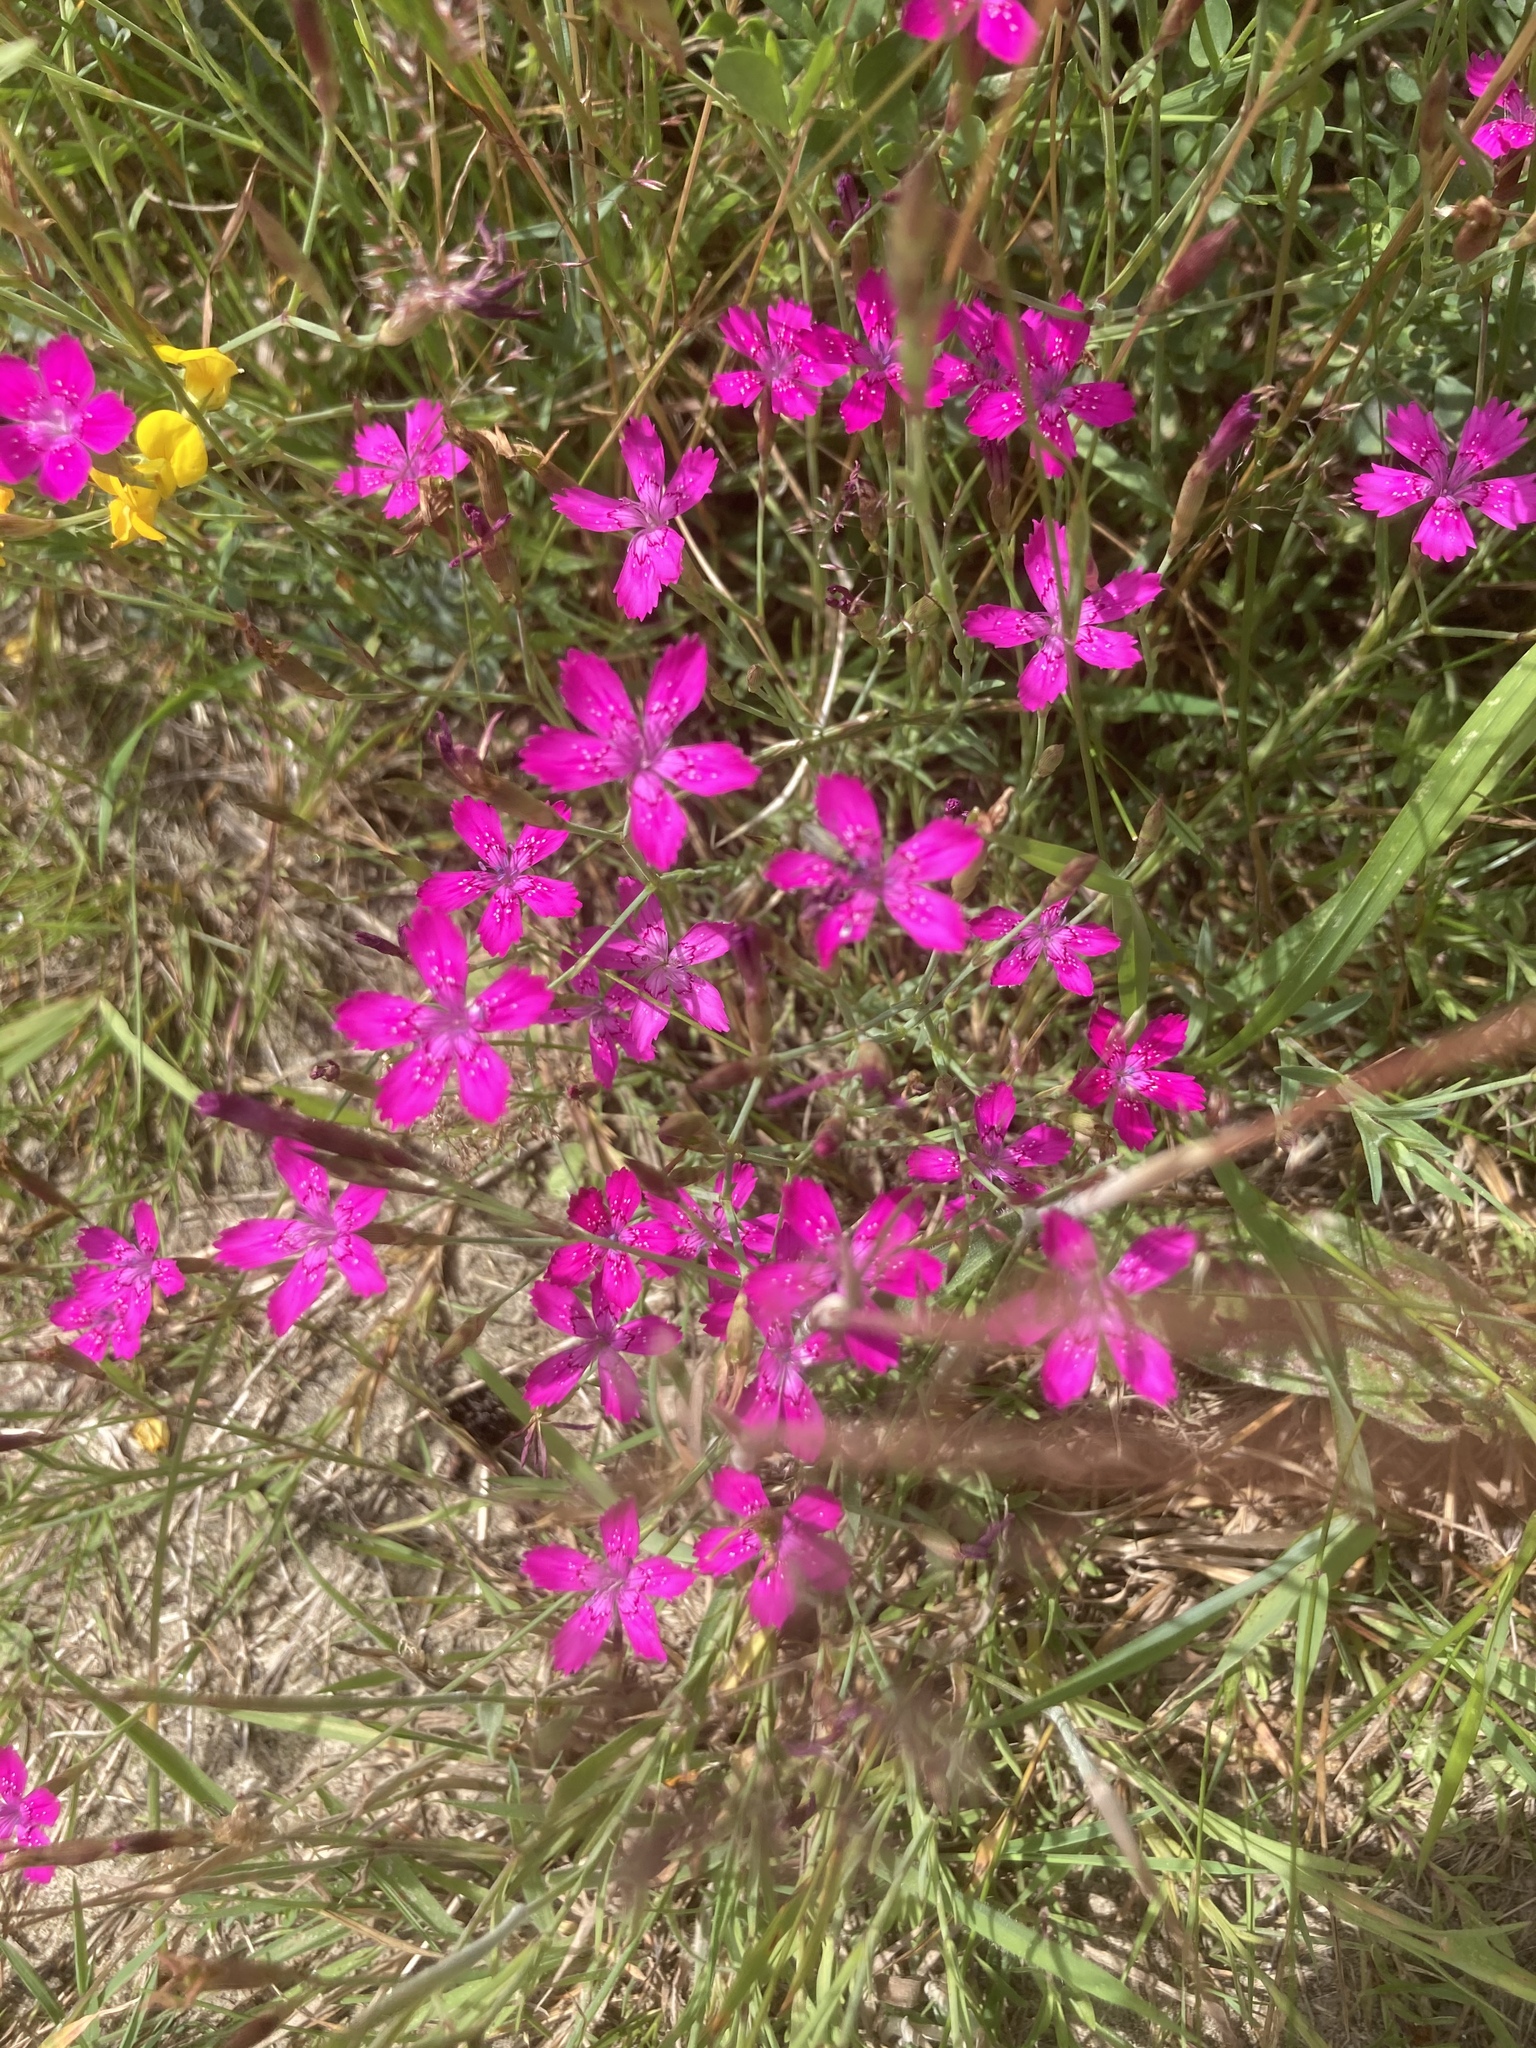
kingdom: Plantae
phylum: Tracheophyta
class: Magnoliopsida
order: Caryophyllales
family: Caryophyllaceae
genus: Dianthus
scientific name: Dianthus deltoides
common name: Maiden pink
